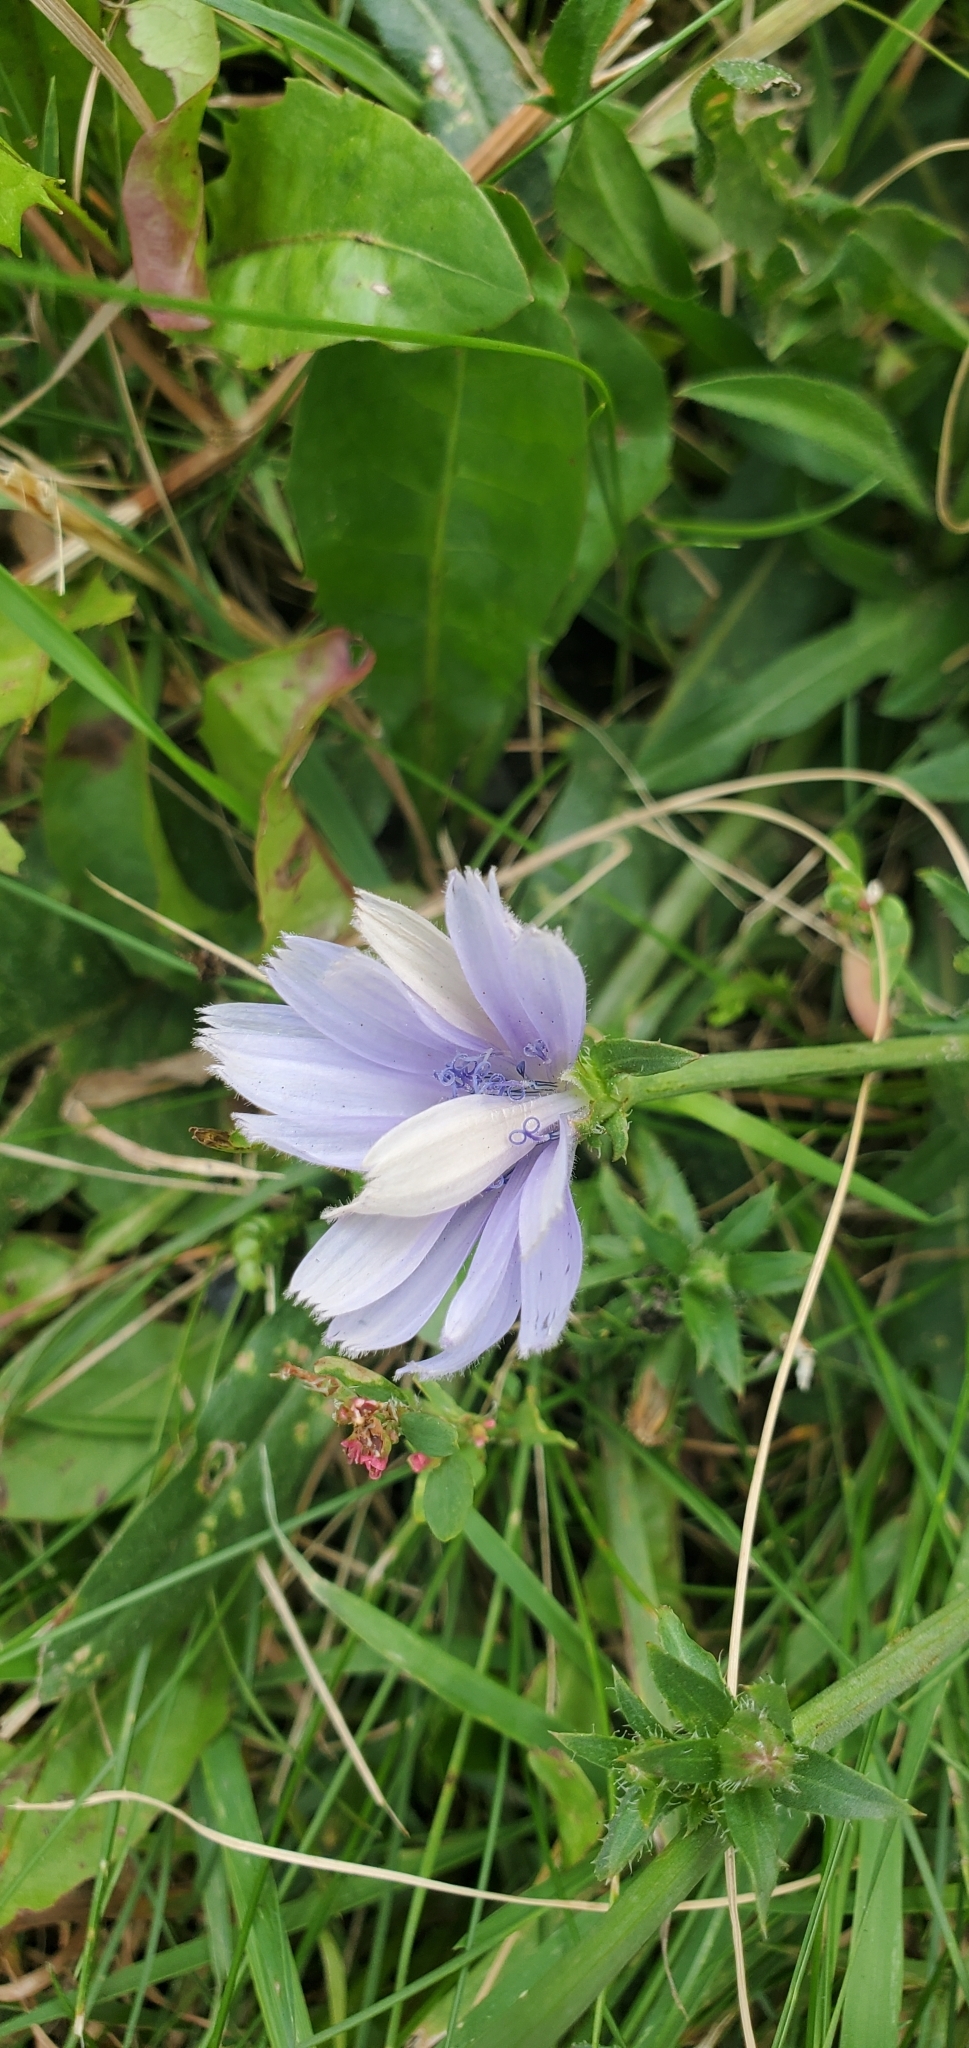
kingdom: Plantae
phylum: Tracheophyta
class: Magnoliopsida
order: Asterales
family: Asteraceae
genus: Cichorium
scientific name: Cichorium intybus
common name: Chicory
